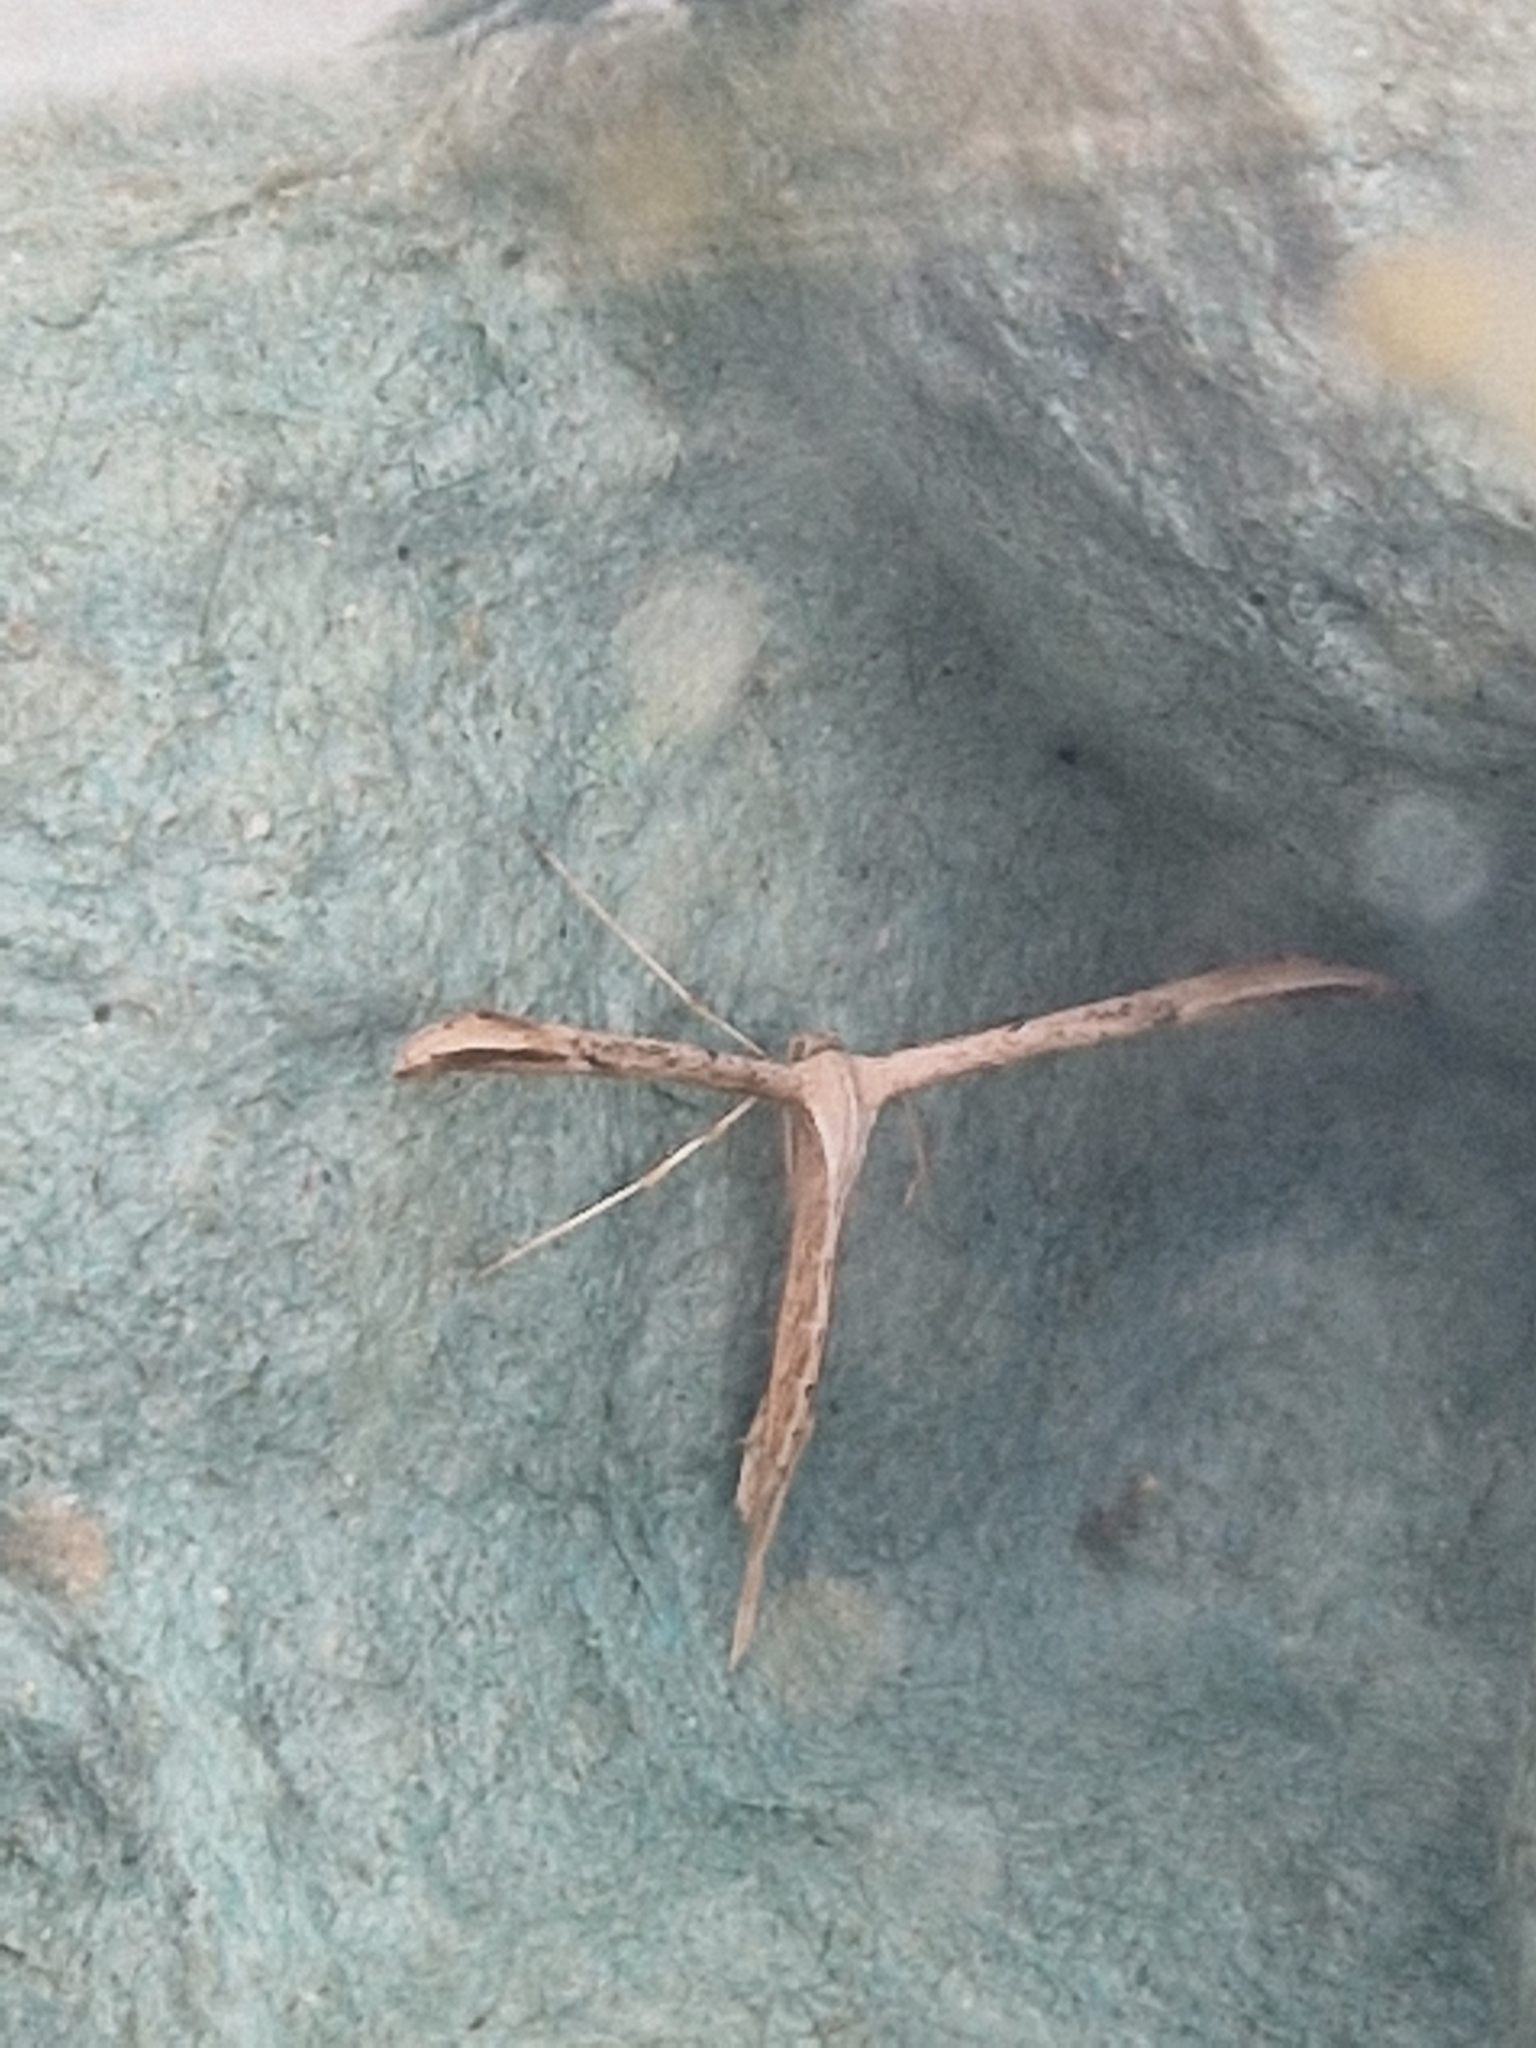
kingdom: Animalia
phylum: Arthropoda
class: Insecta
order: Lepidoptera
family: Pterophoridae
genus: Emmelina
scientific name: Emmelina monodactyla
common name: Common plume
